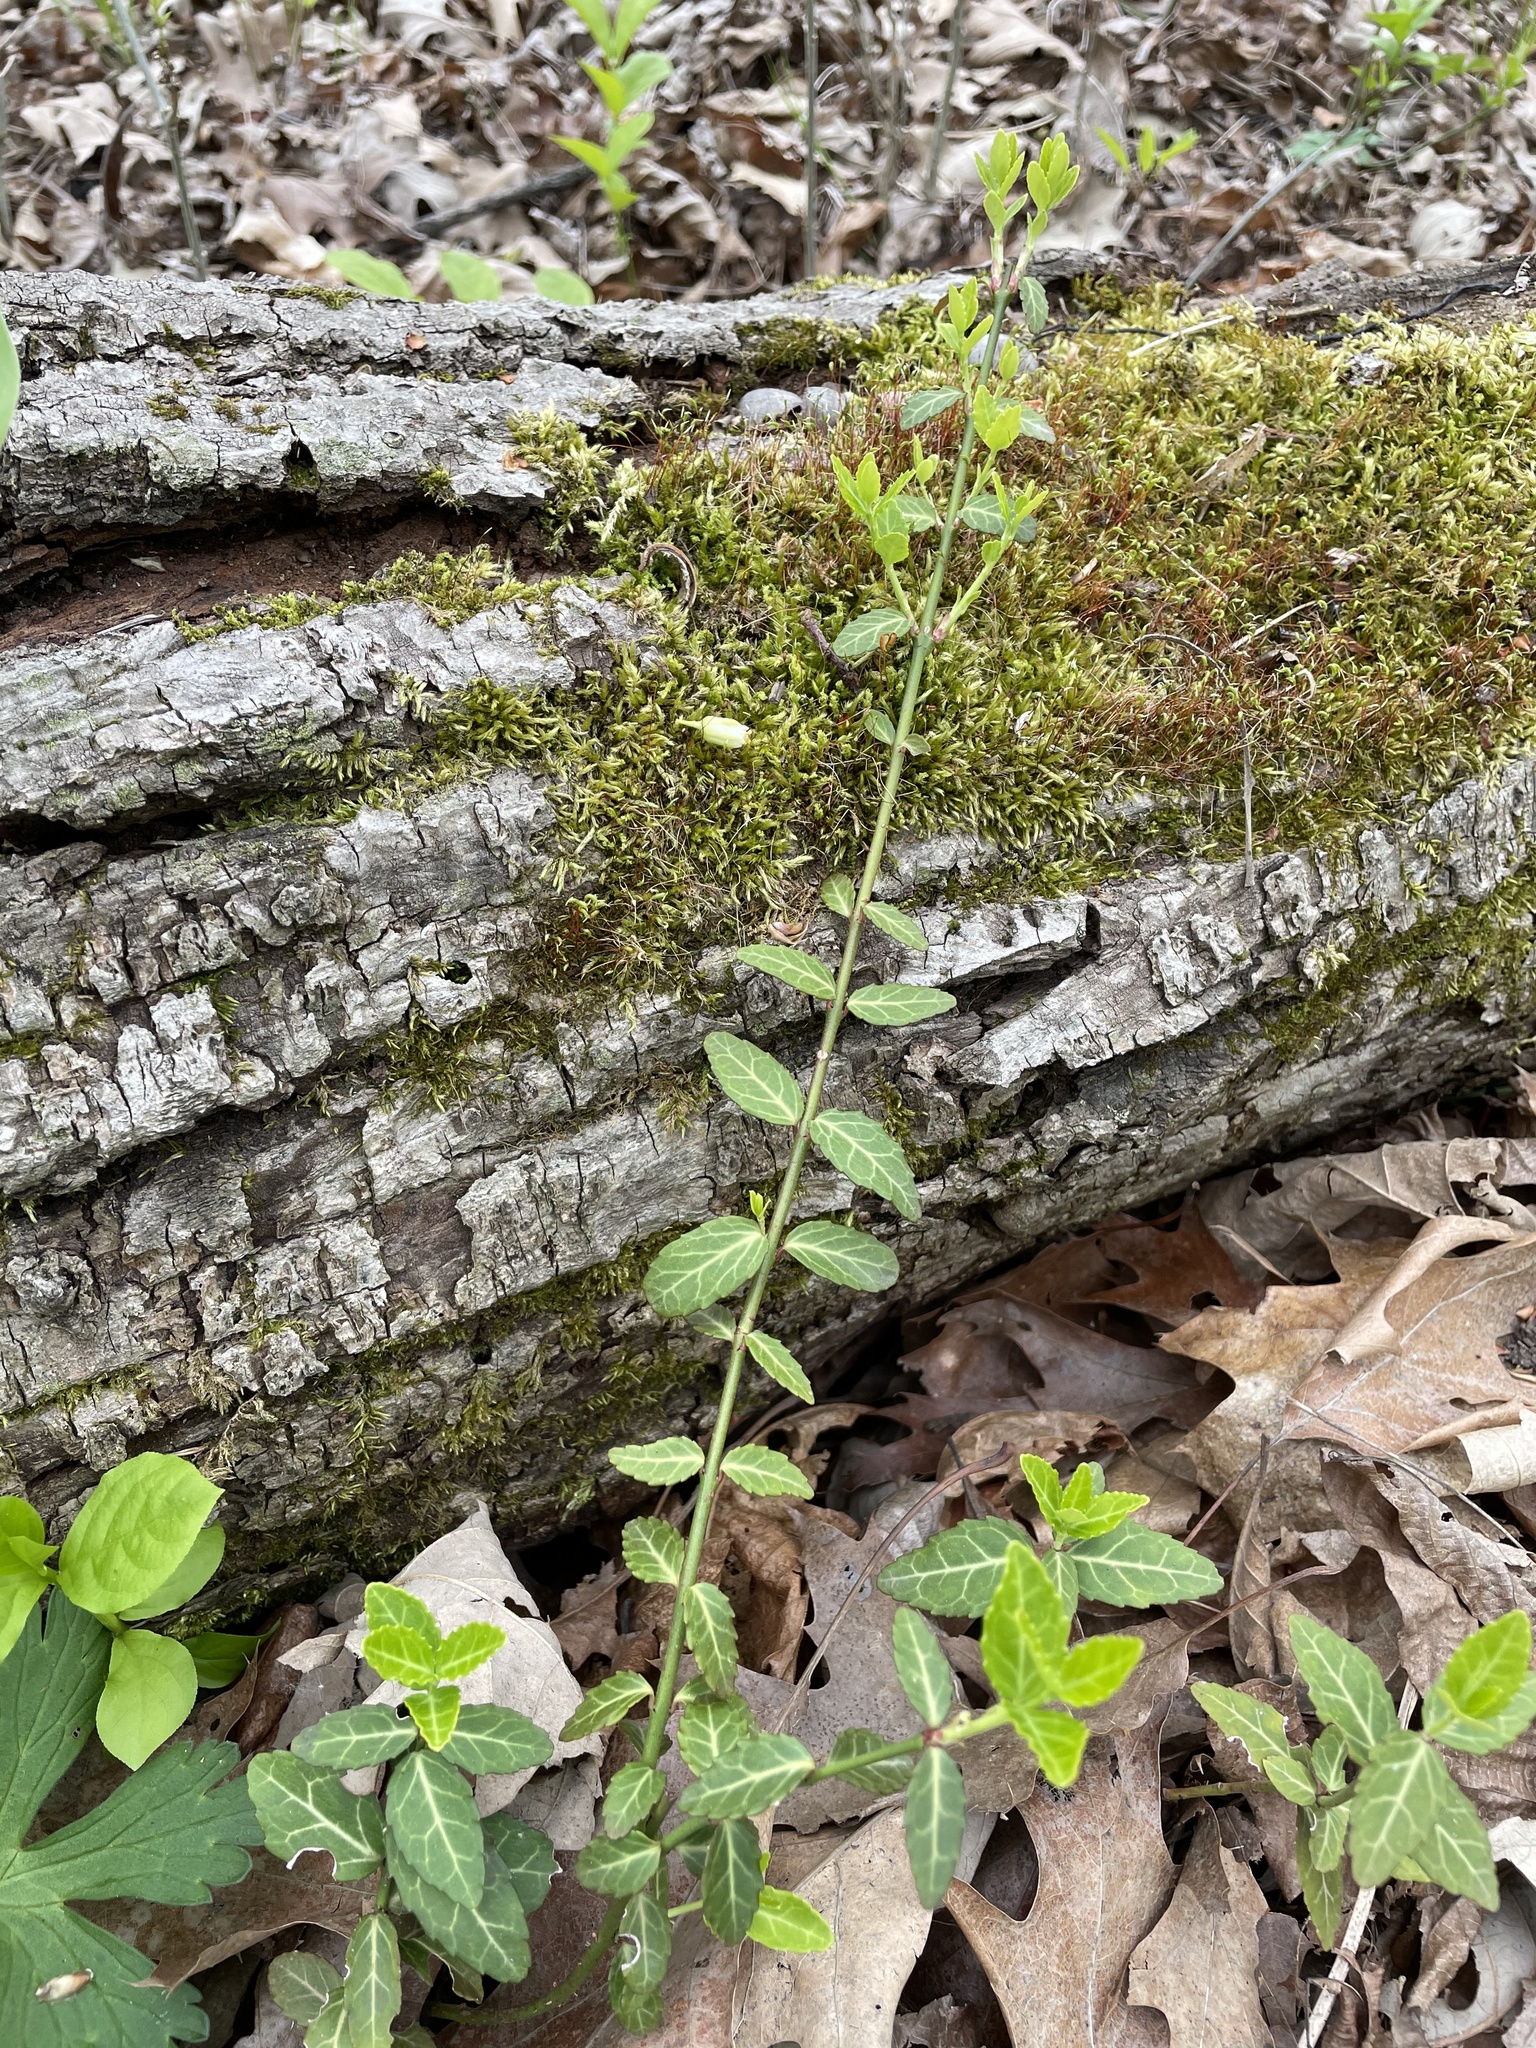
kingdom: Plantae
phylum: Tracheophyta
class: Magnoliopsida
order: Celastrales
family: Celastraceae
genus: Euonymus
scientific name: Euonymus fortunei
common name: Climbing euonymus
